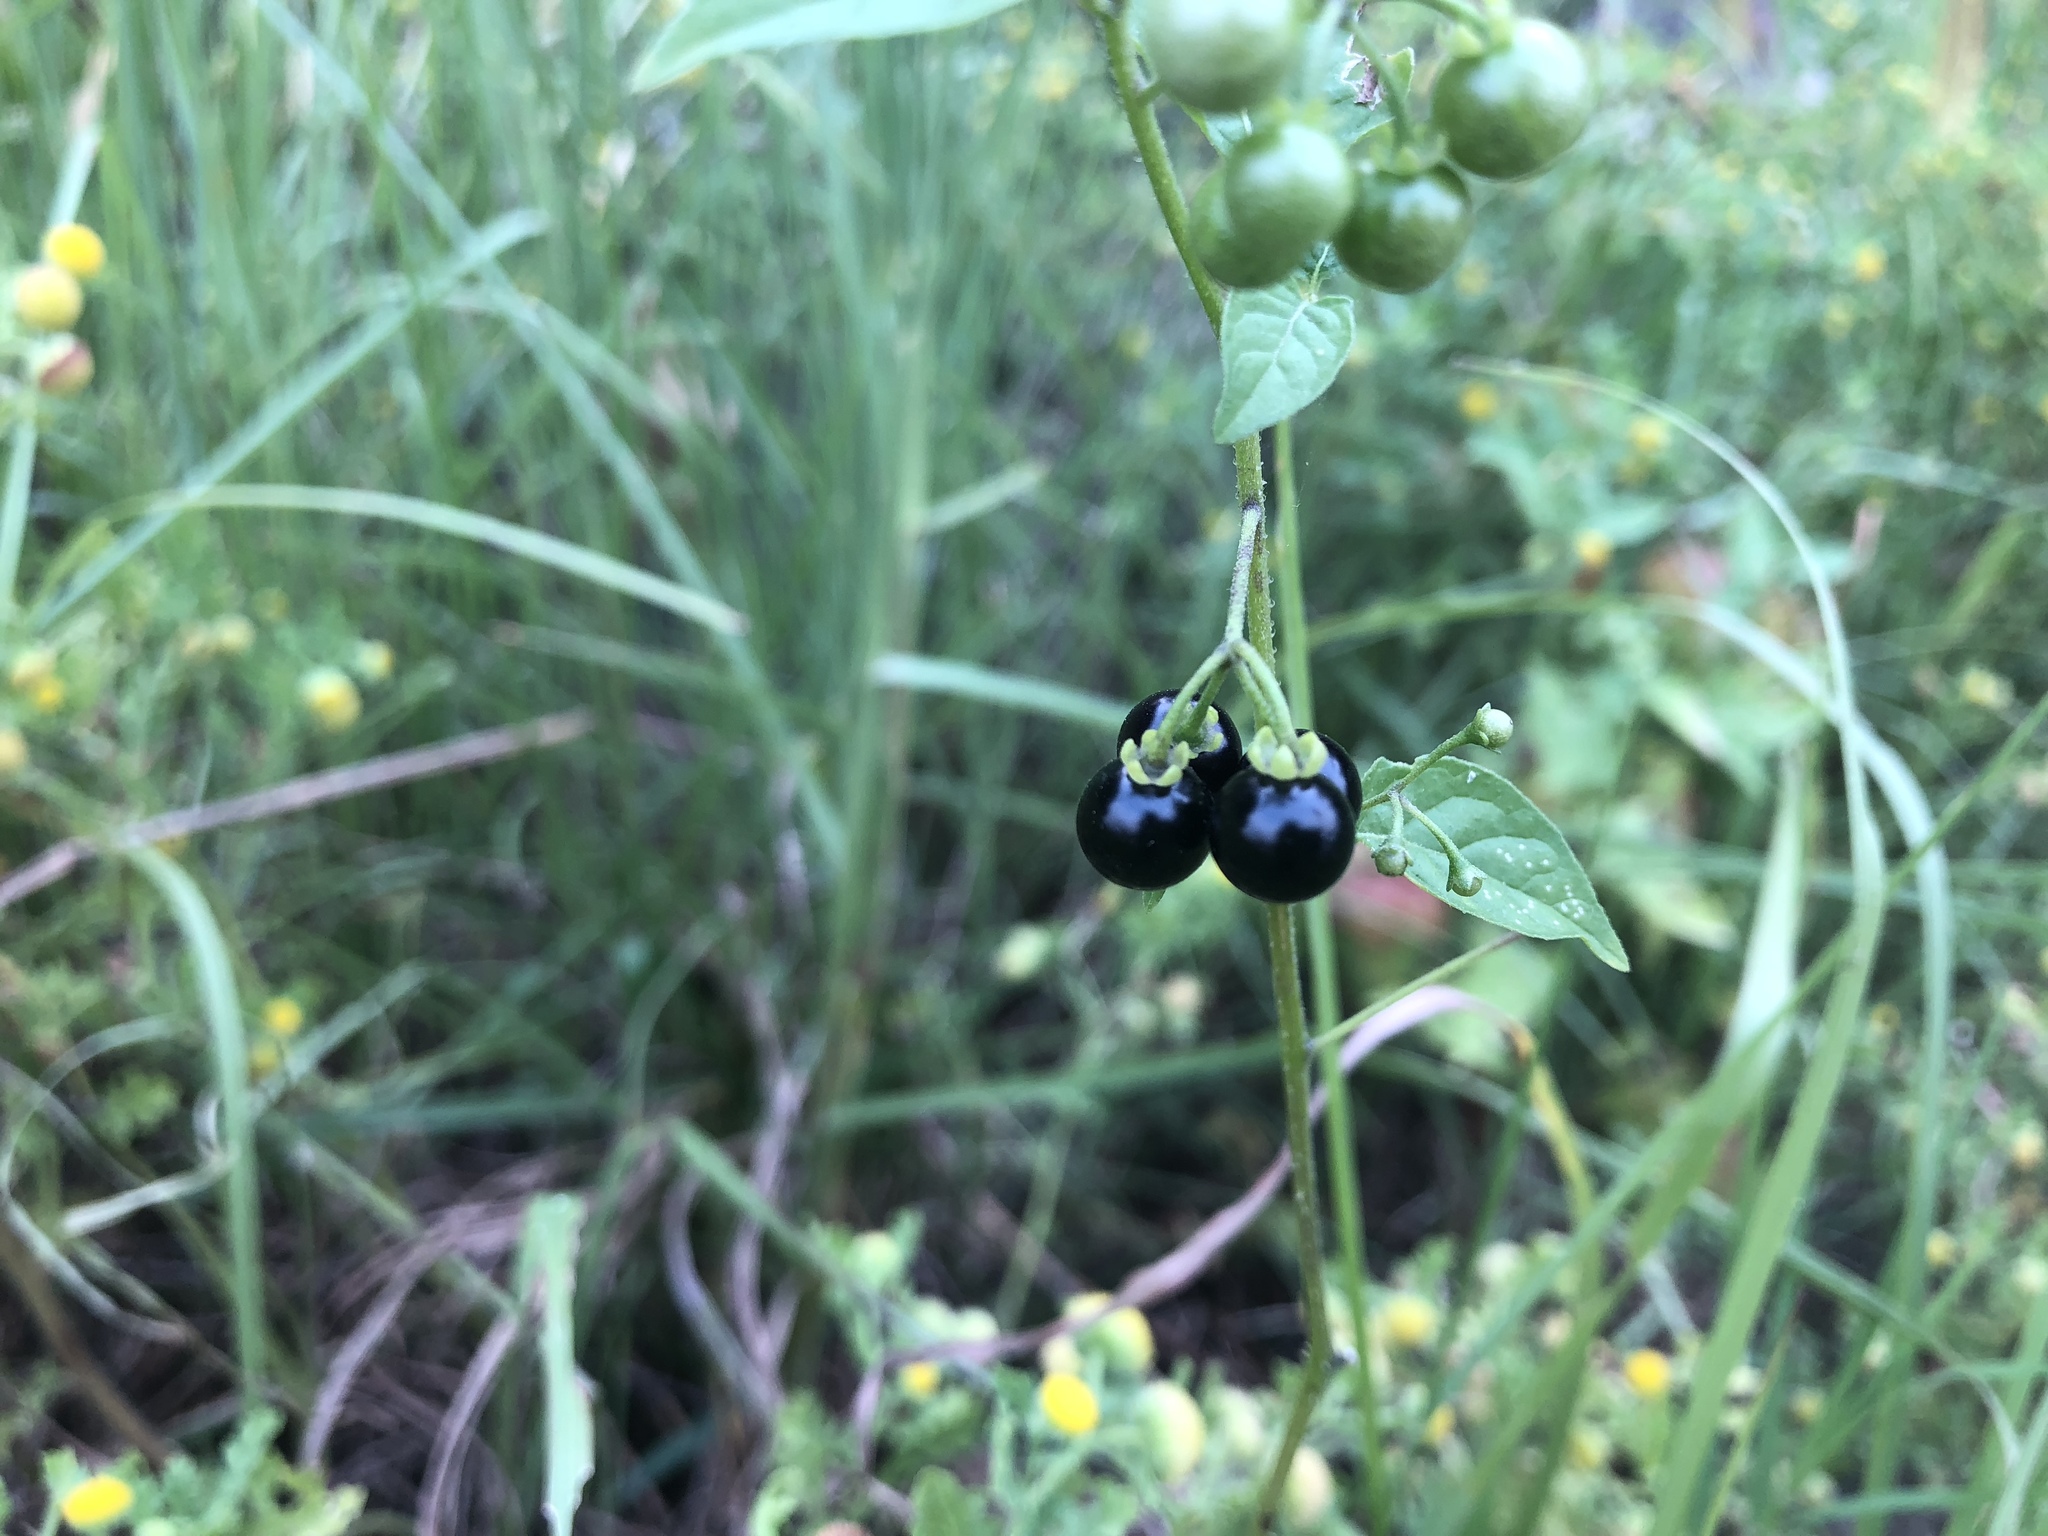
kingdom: Plantae
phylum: Tracheophyta
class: Magnoliopsida
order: Solanales
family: Solanaceae
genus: Solanum
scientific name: Solanum americanum
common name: American black nightshade
